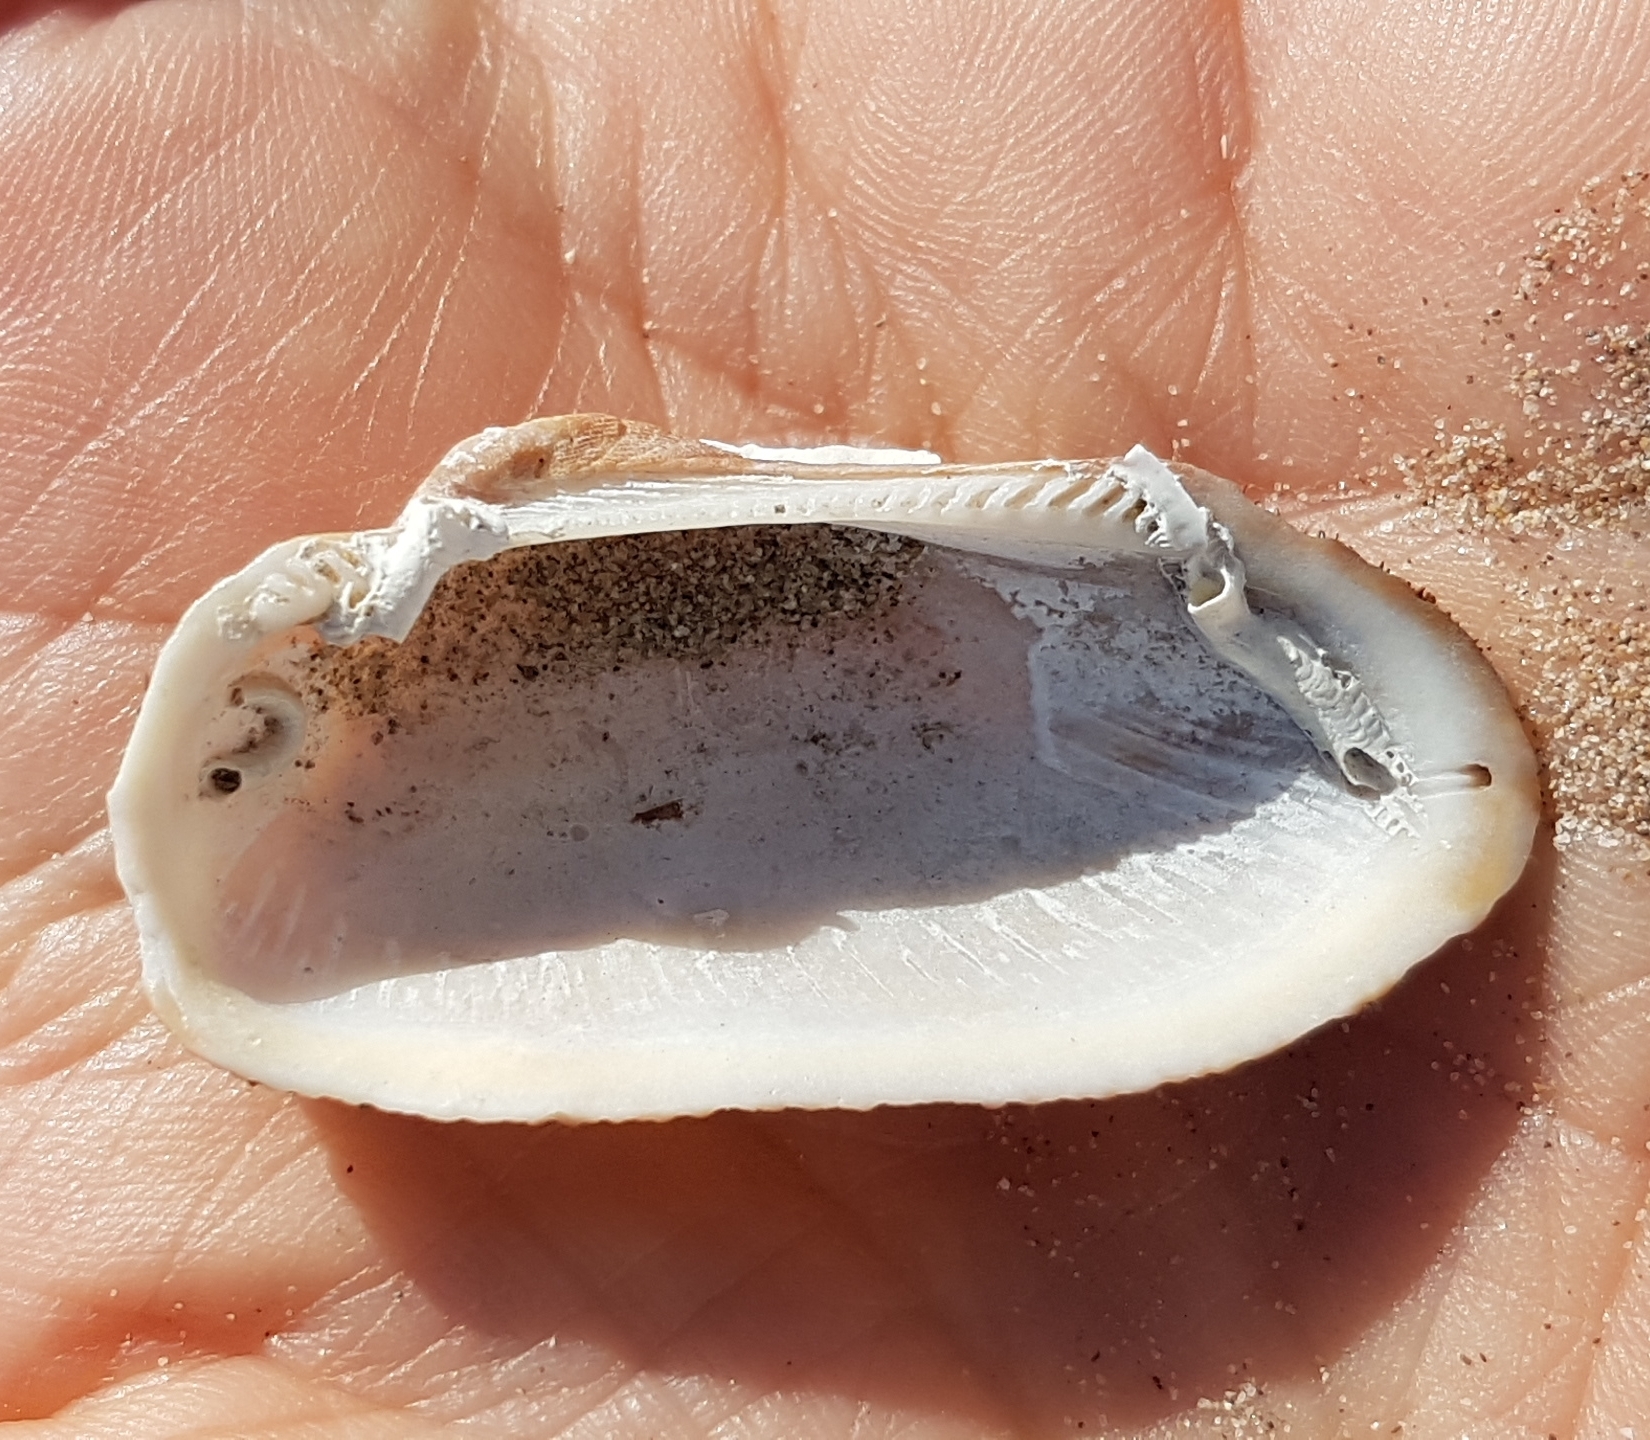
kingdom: Animalia
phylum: Mollusca
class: Bivalvia
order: Arcida
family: Arcidae
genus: Barbatia
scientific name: Barbatia barbata
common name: Bearded ark
